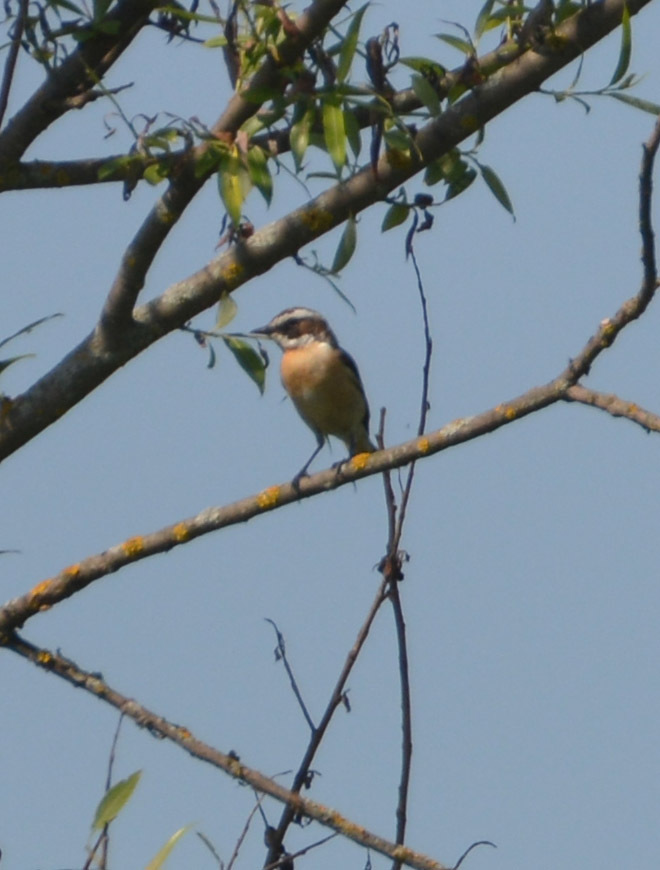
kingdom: Animalia
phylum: Chordata
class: Aves
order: Passeriformes
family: Muscicapidae
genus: Saxicola
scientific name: Saxicola rubetra
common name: Whinchat
